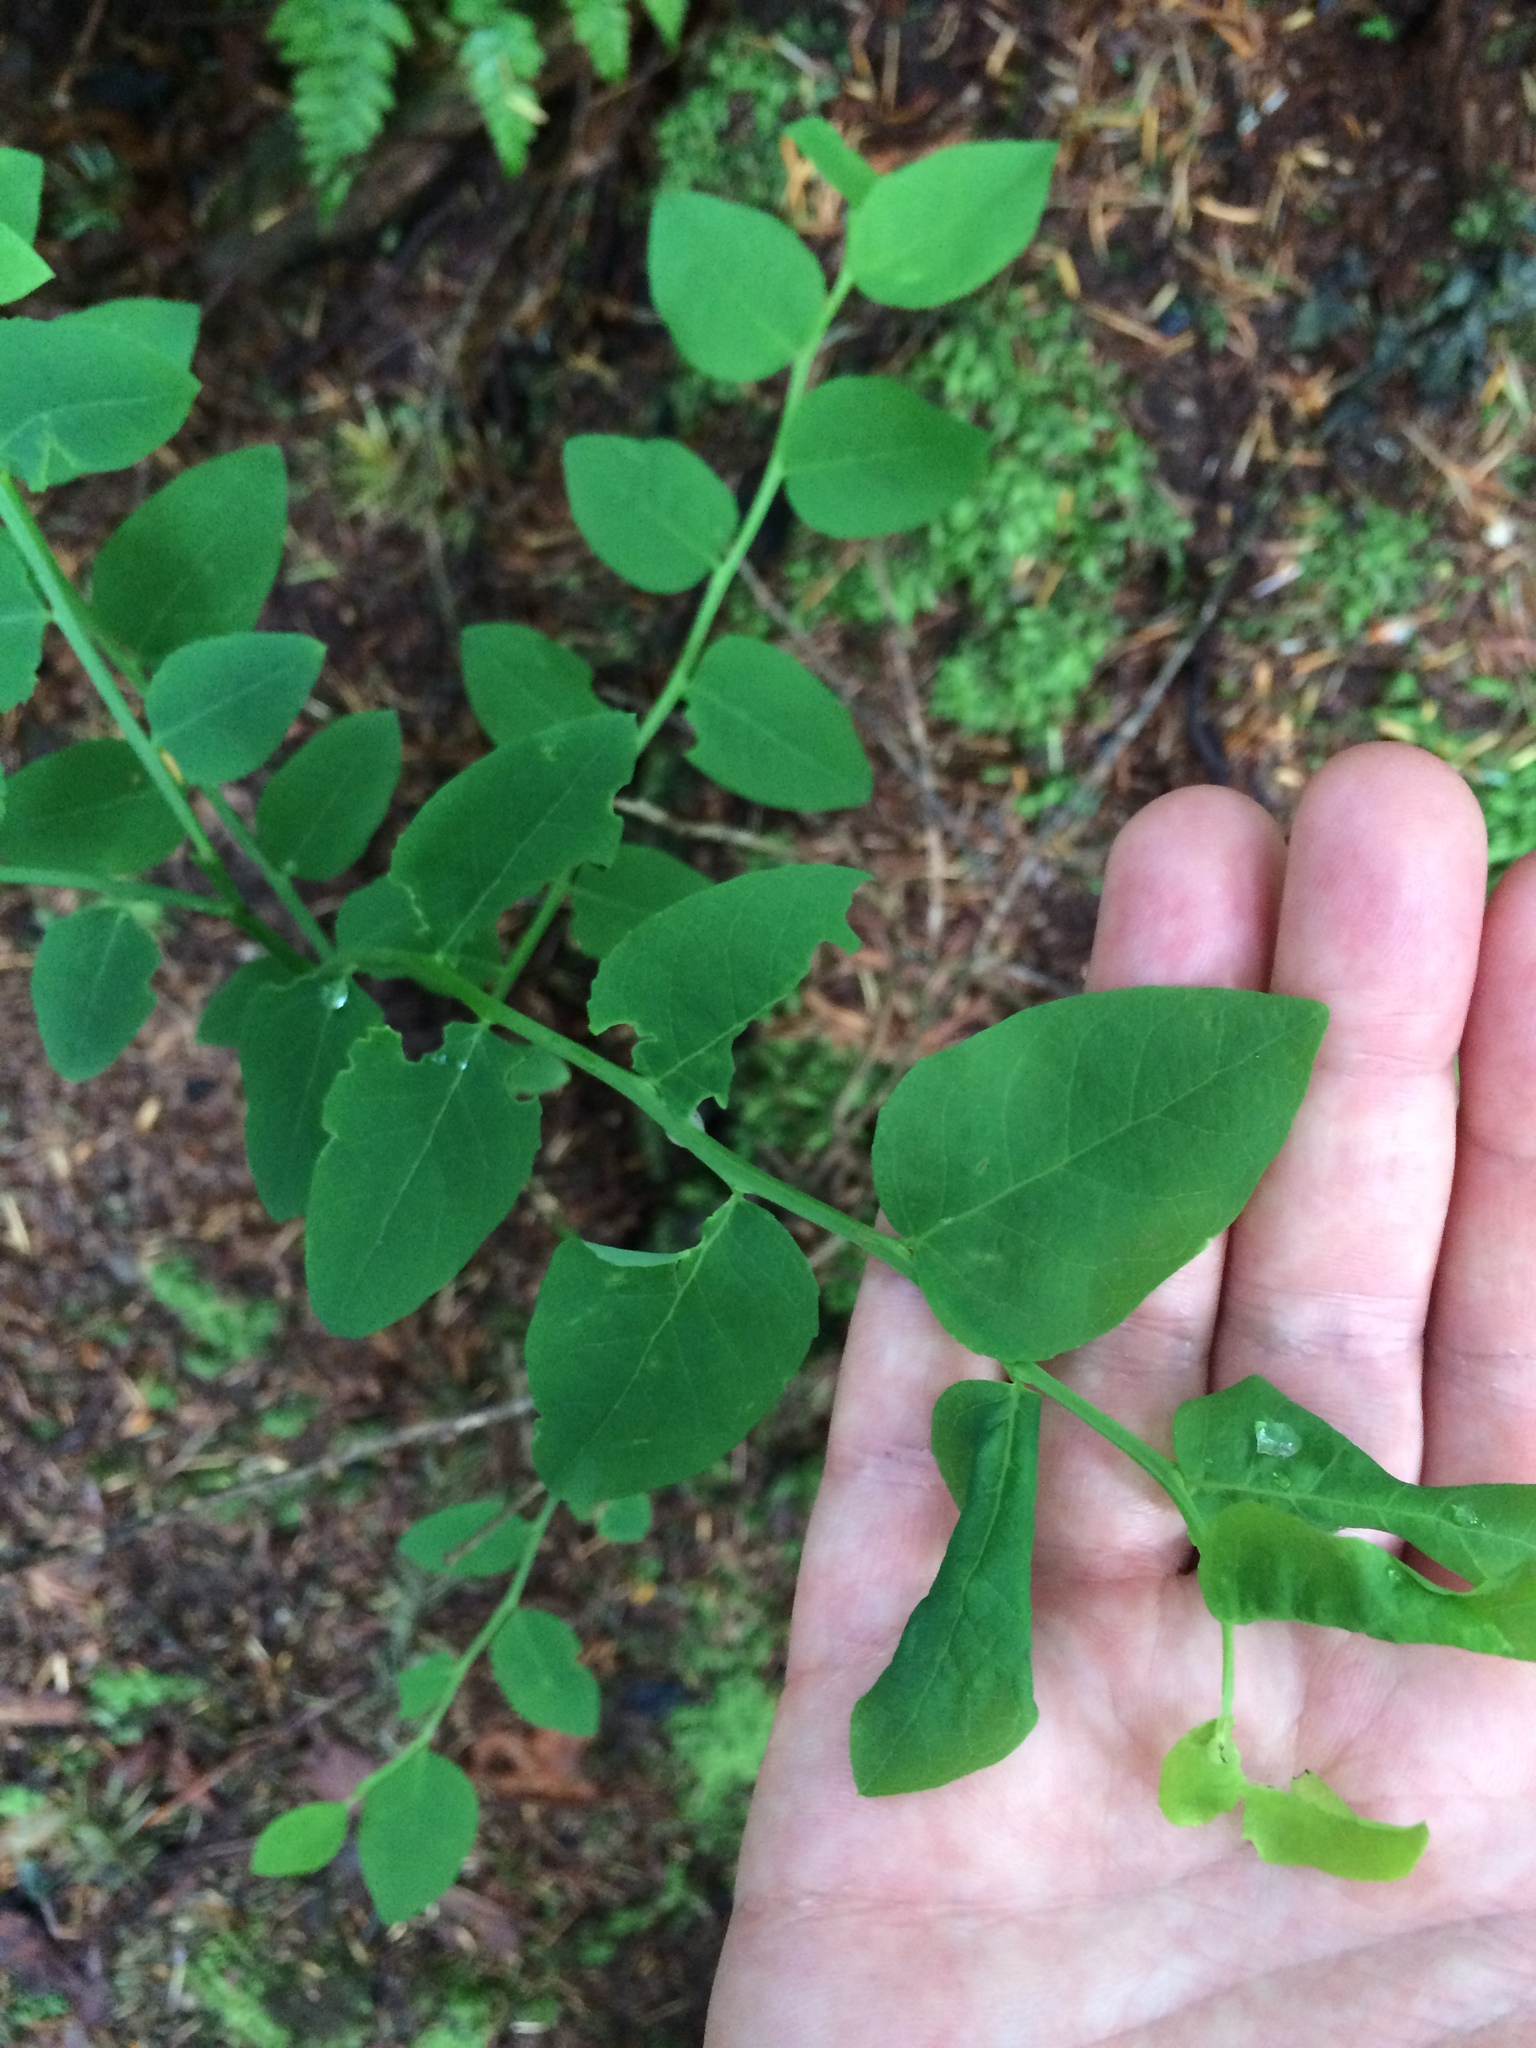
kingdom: Plantae
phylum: Tracheophyta
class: Magnoliopsida
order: Ericales
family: Ericaceae
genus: Vaccinium
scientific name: Vaccinium parvifolium
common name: Red-huckleberry
